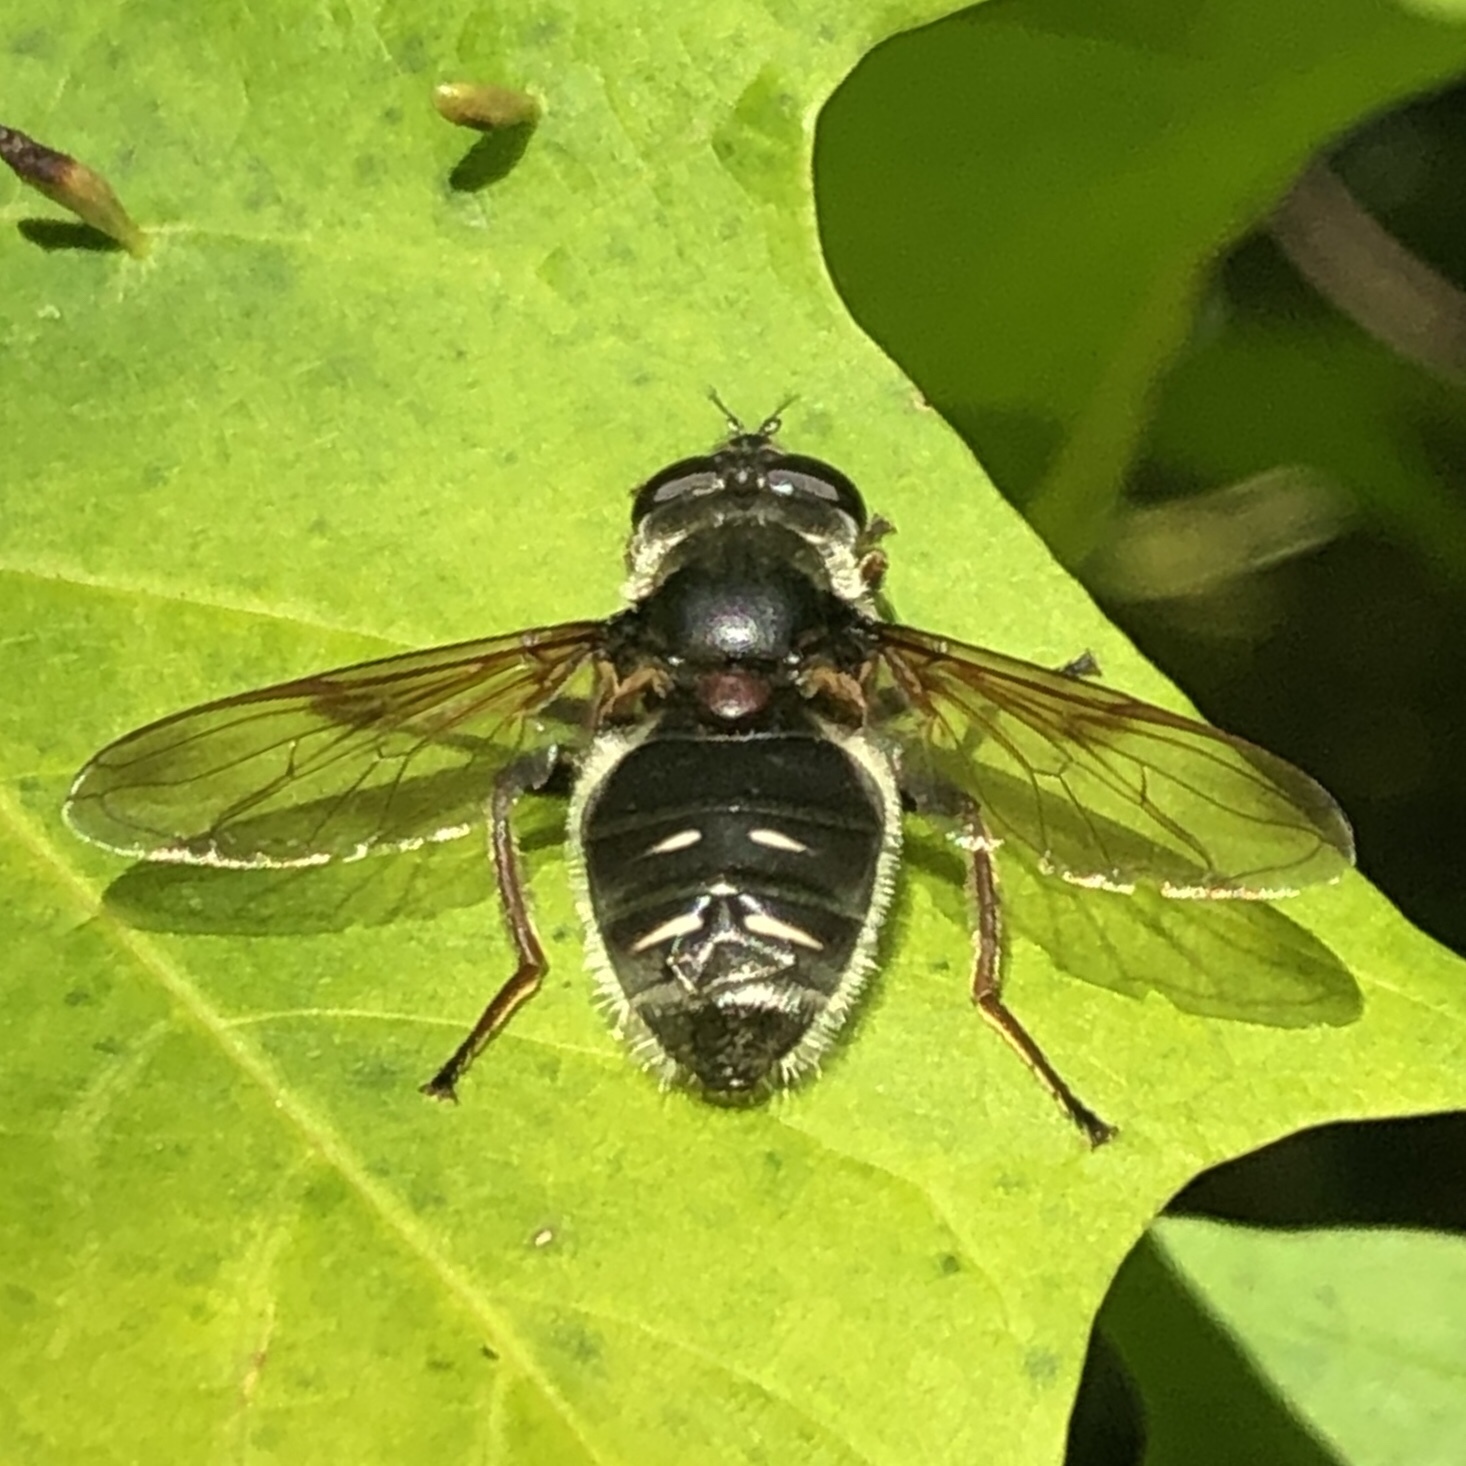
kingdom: Animalia
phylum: Arthropoda
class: Insecta
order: Diptera
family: Syrphidae
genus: Sericomyia
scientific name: Sericomyia militaris
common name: Narrow-banded pond fly
